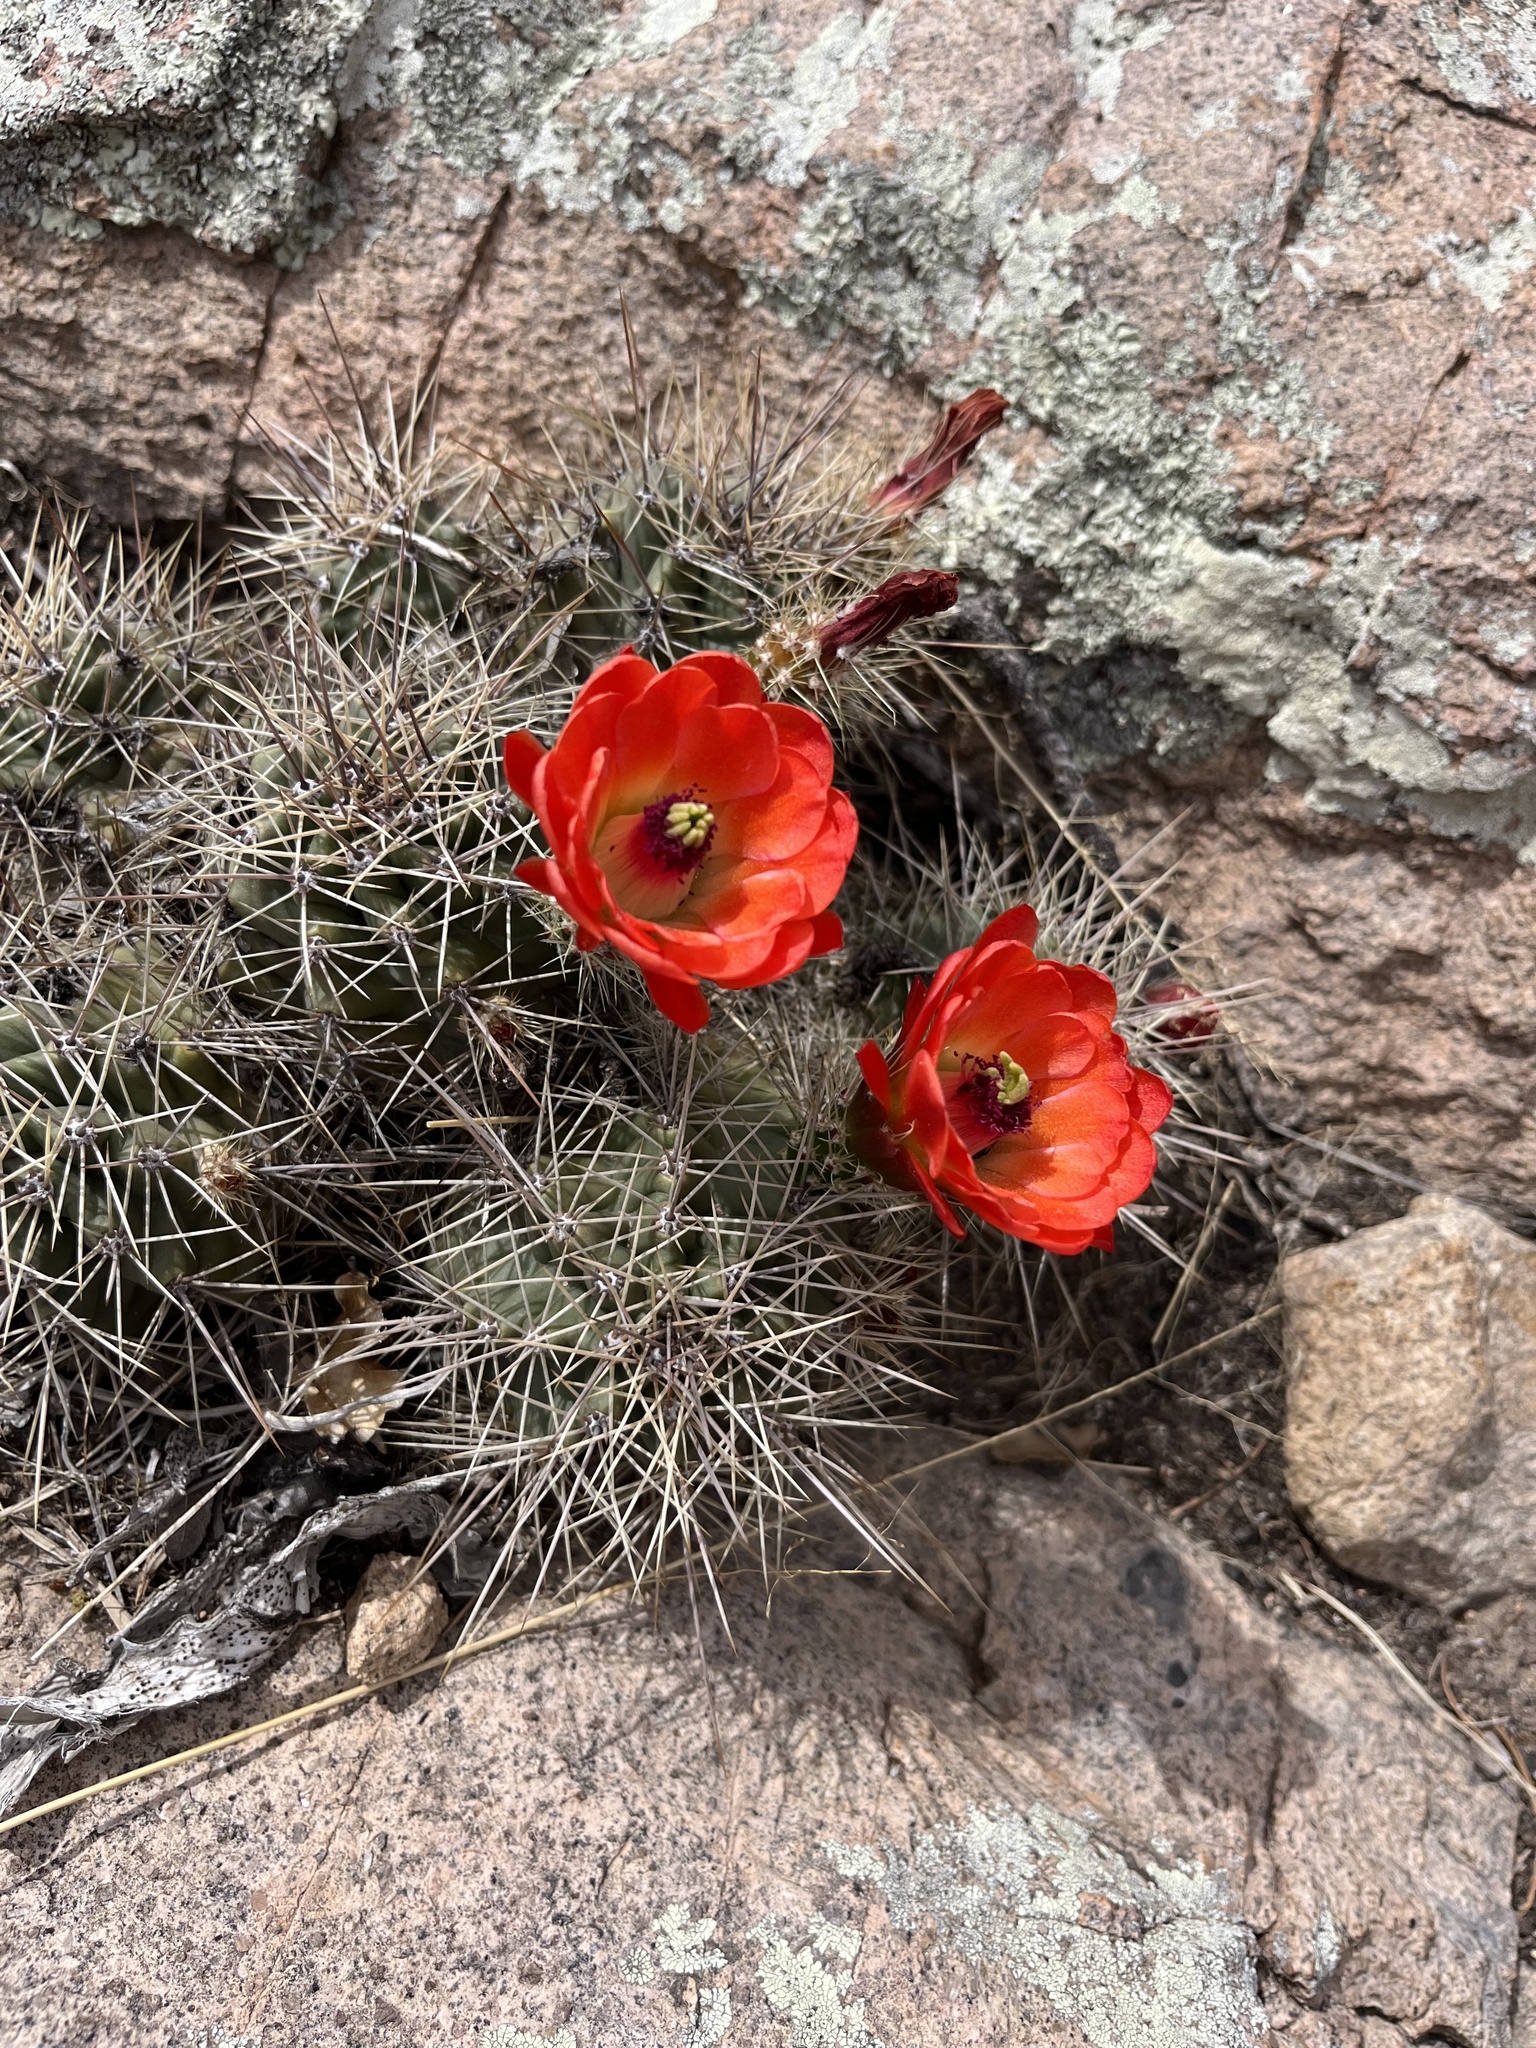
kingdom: Plantae
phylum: Tracheophyta
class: Magnoliopsida
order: Caryophyllales
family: Cactaceae
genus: Echinocereus
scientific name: Echinocereus coccineus
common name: Scarlet hedgehog cactus
